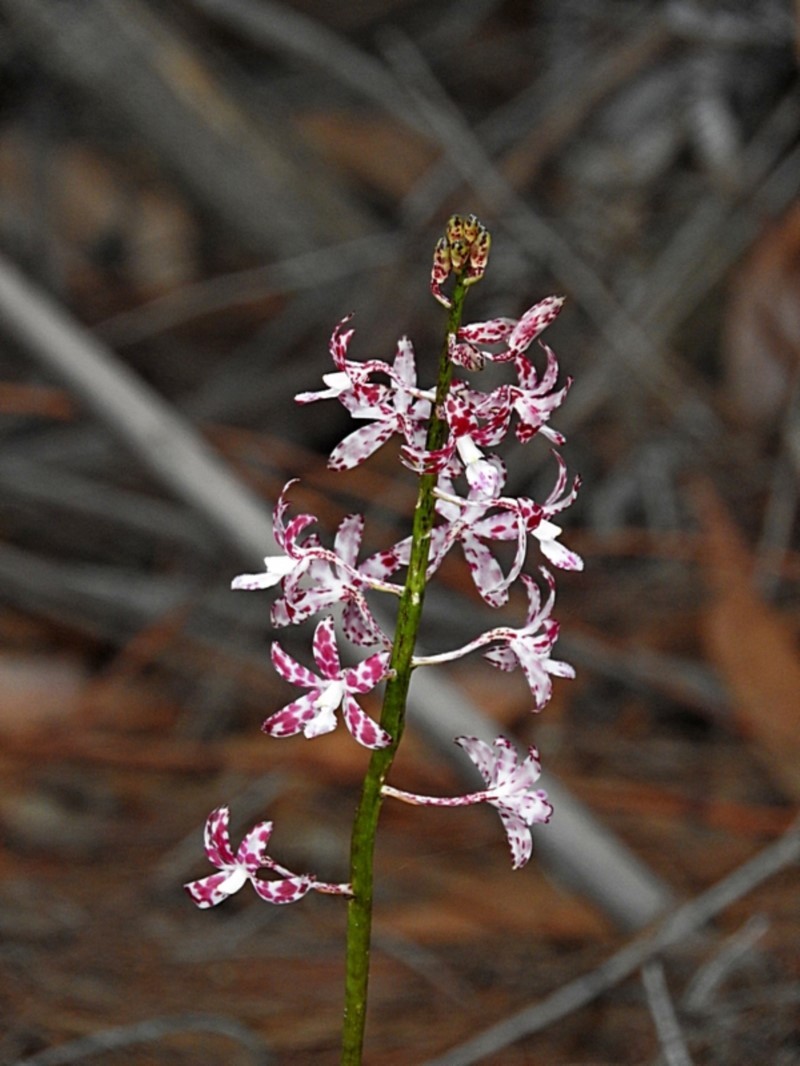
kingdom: Plantae
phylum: Tracheophyta
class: Liliopsida
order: Asparagales
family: Orchidaceae
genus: Dipodium
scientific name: Dipodium variegatum
